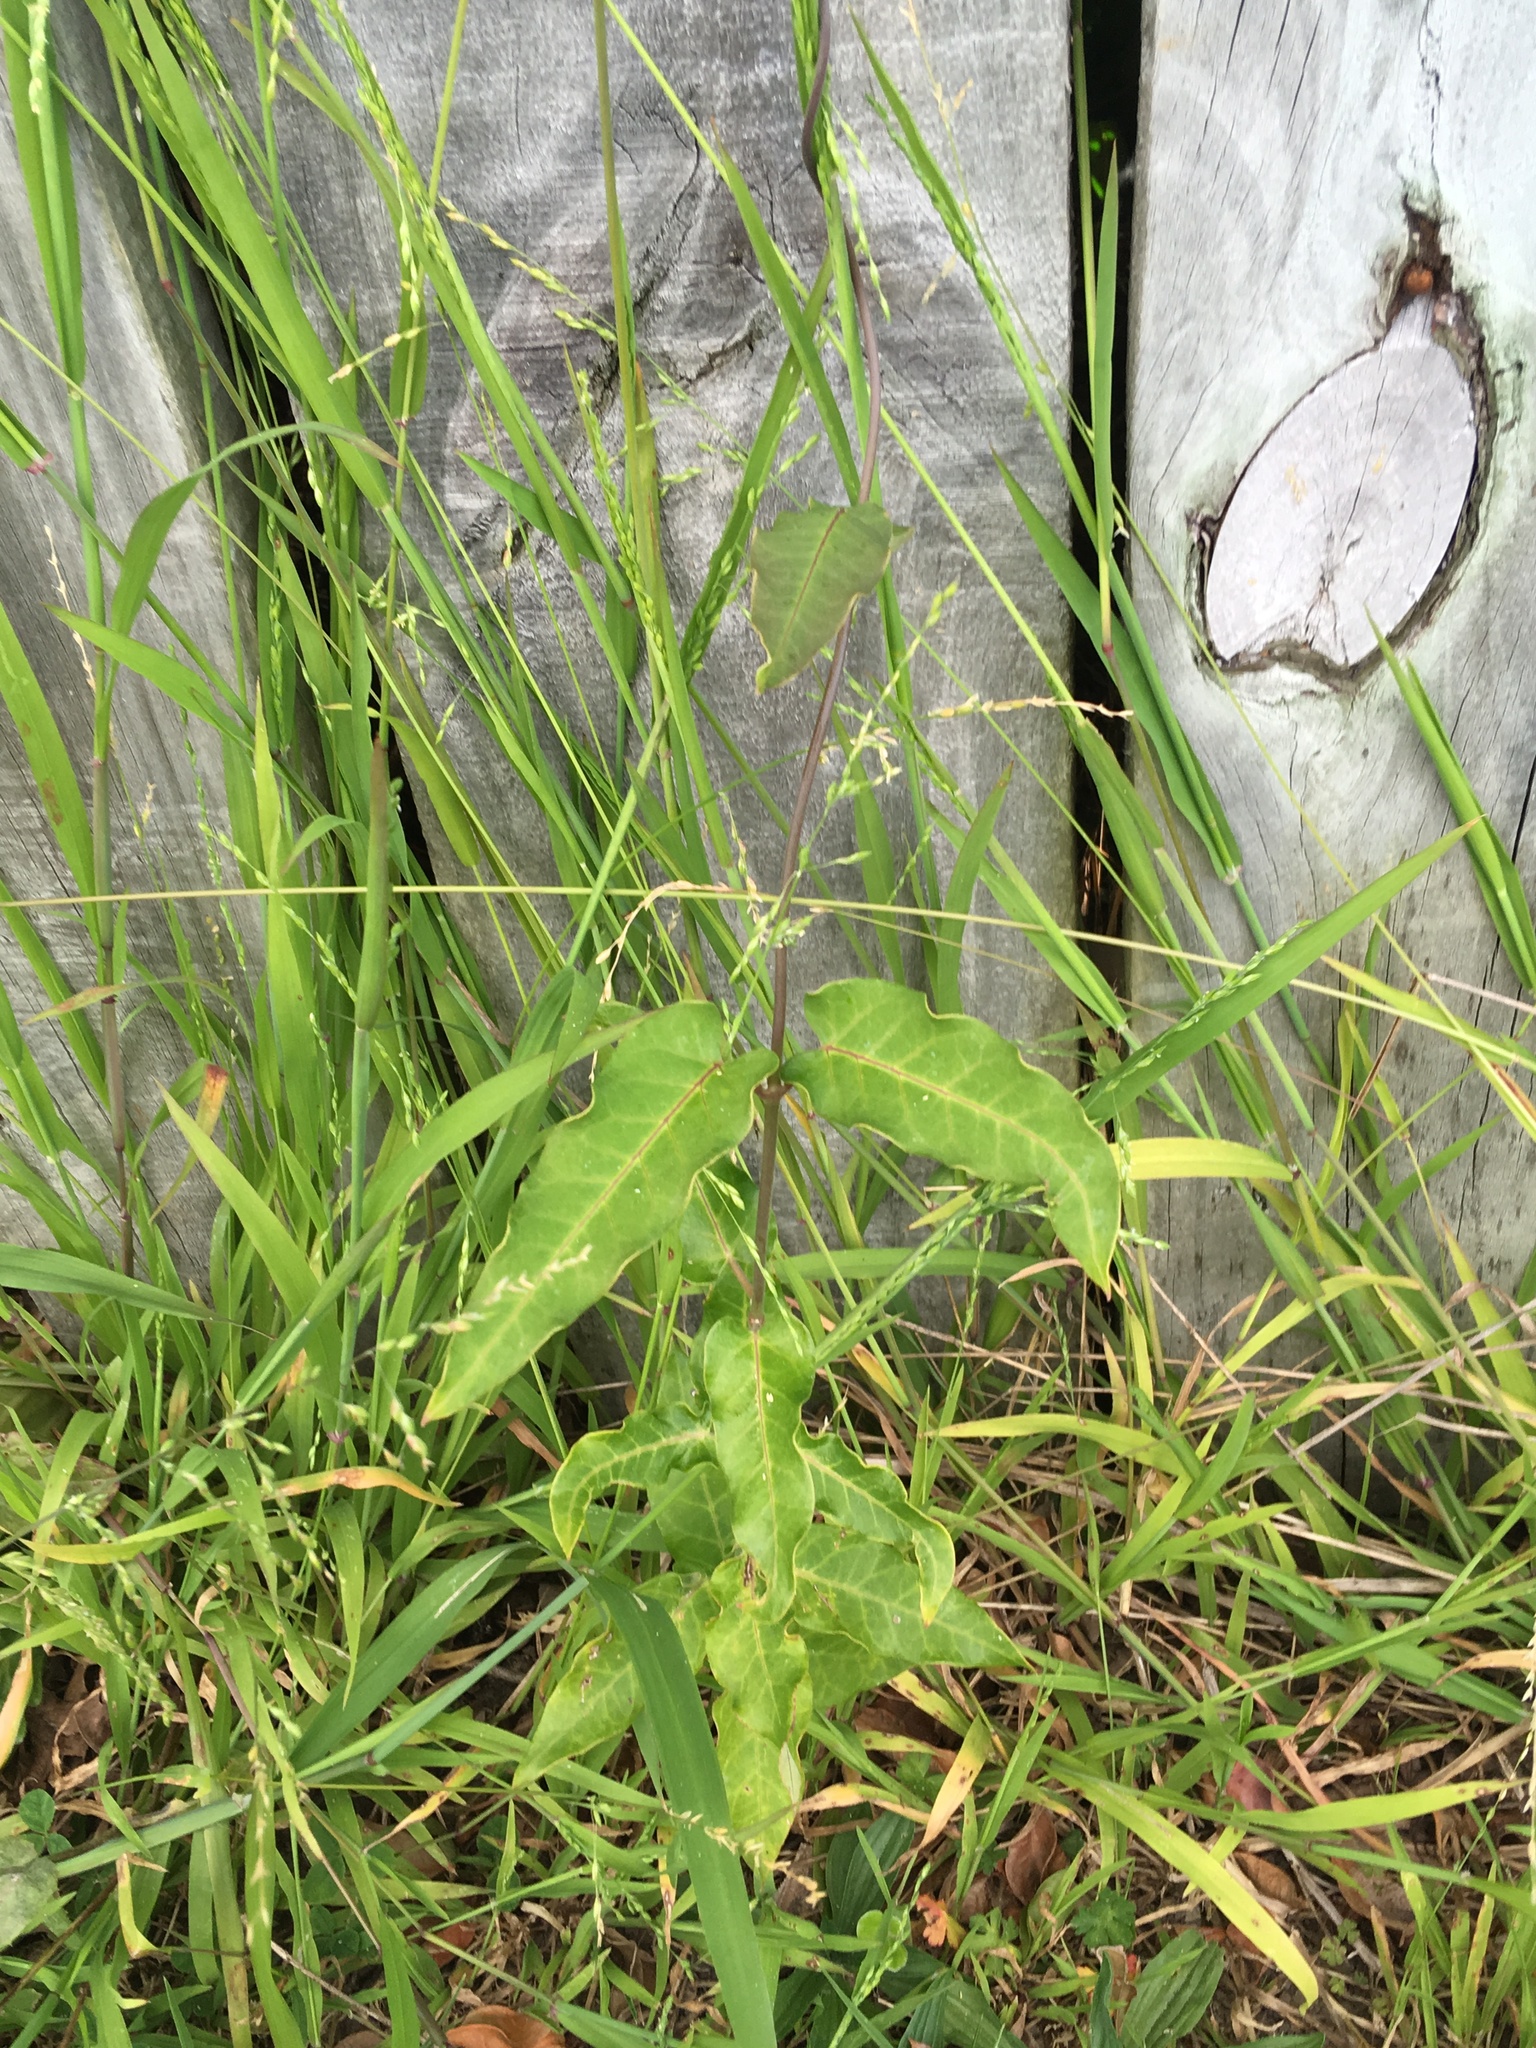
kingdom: Plantae
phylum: Tracheophyta
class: Magnoliopsida
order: Gentianales
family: Apocynaceae
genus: Araujia
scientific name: Araujia sericifera
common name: White bladderflower
